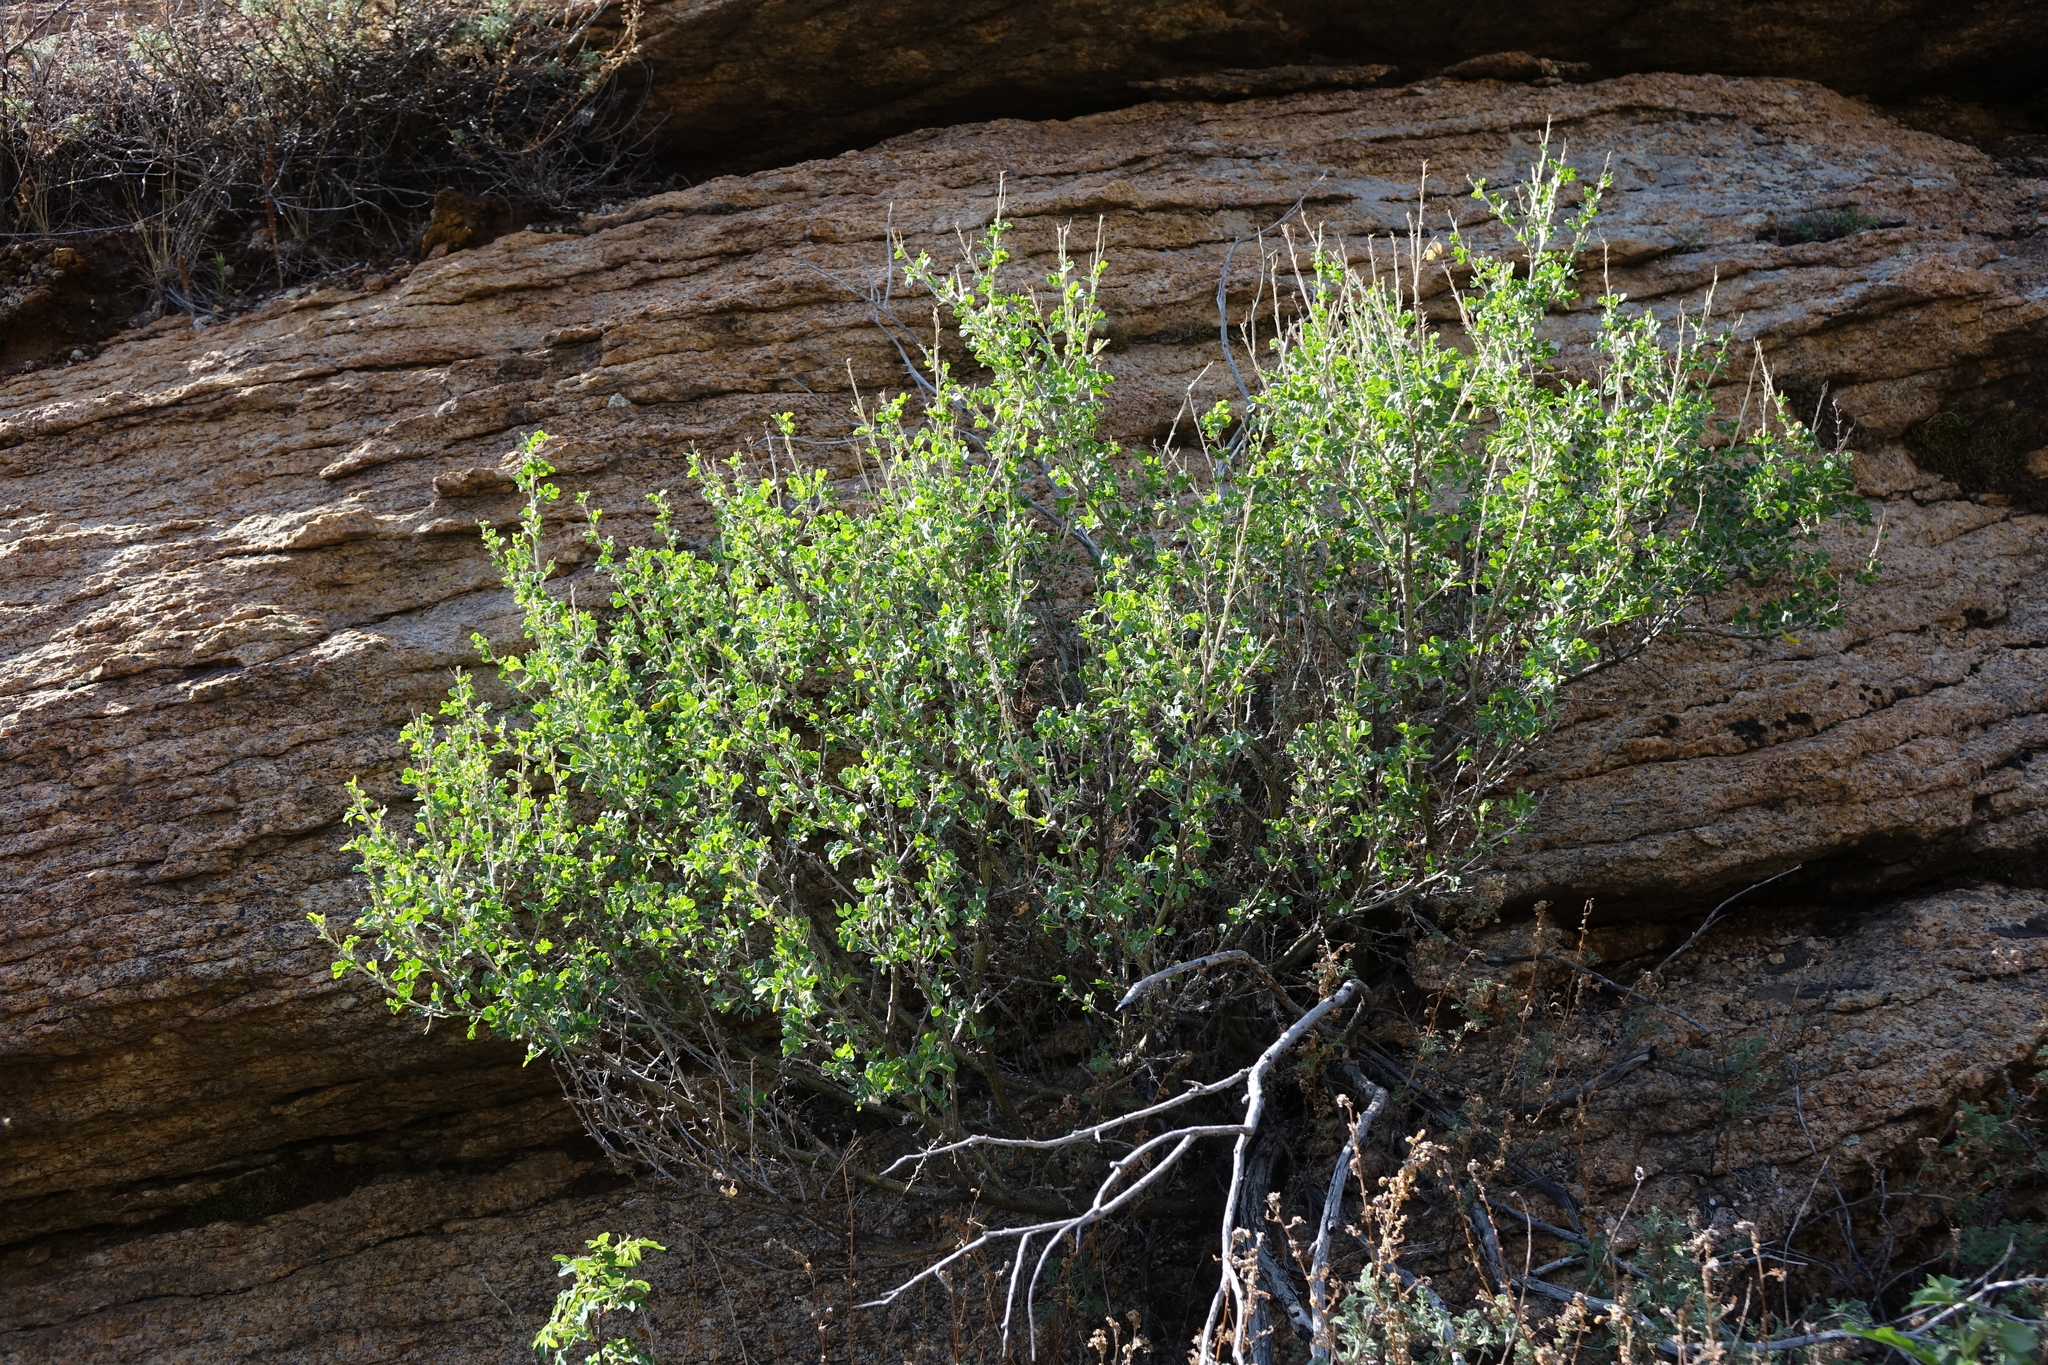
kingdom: Plantae
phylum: Tracheophyta
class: Magnoliopsida
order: Fabales
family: Fabaceae
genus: Caragana
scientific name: Caragana bungei
